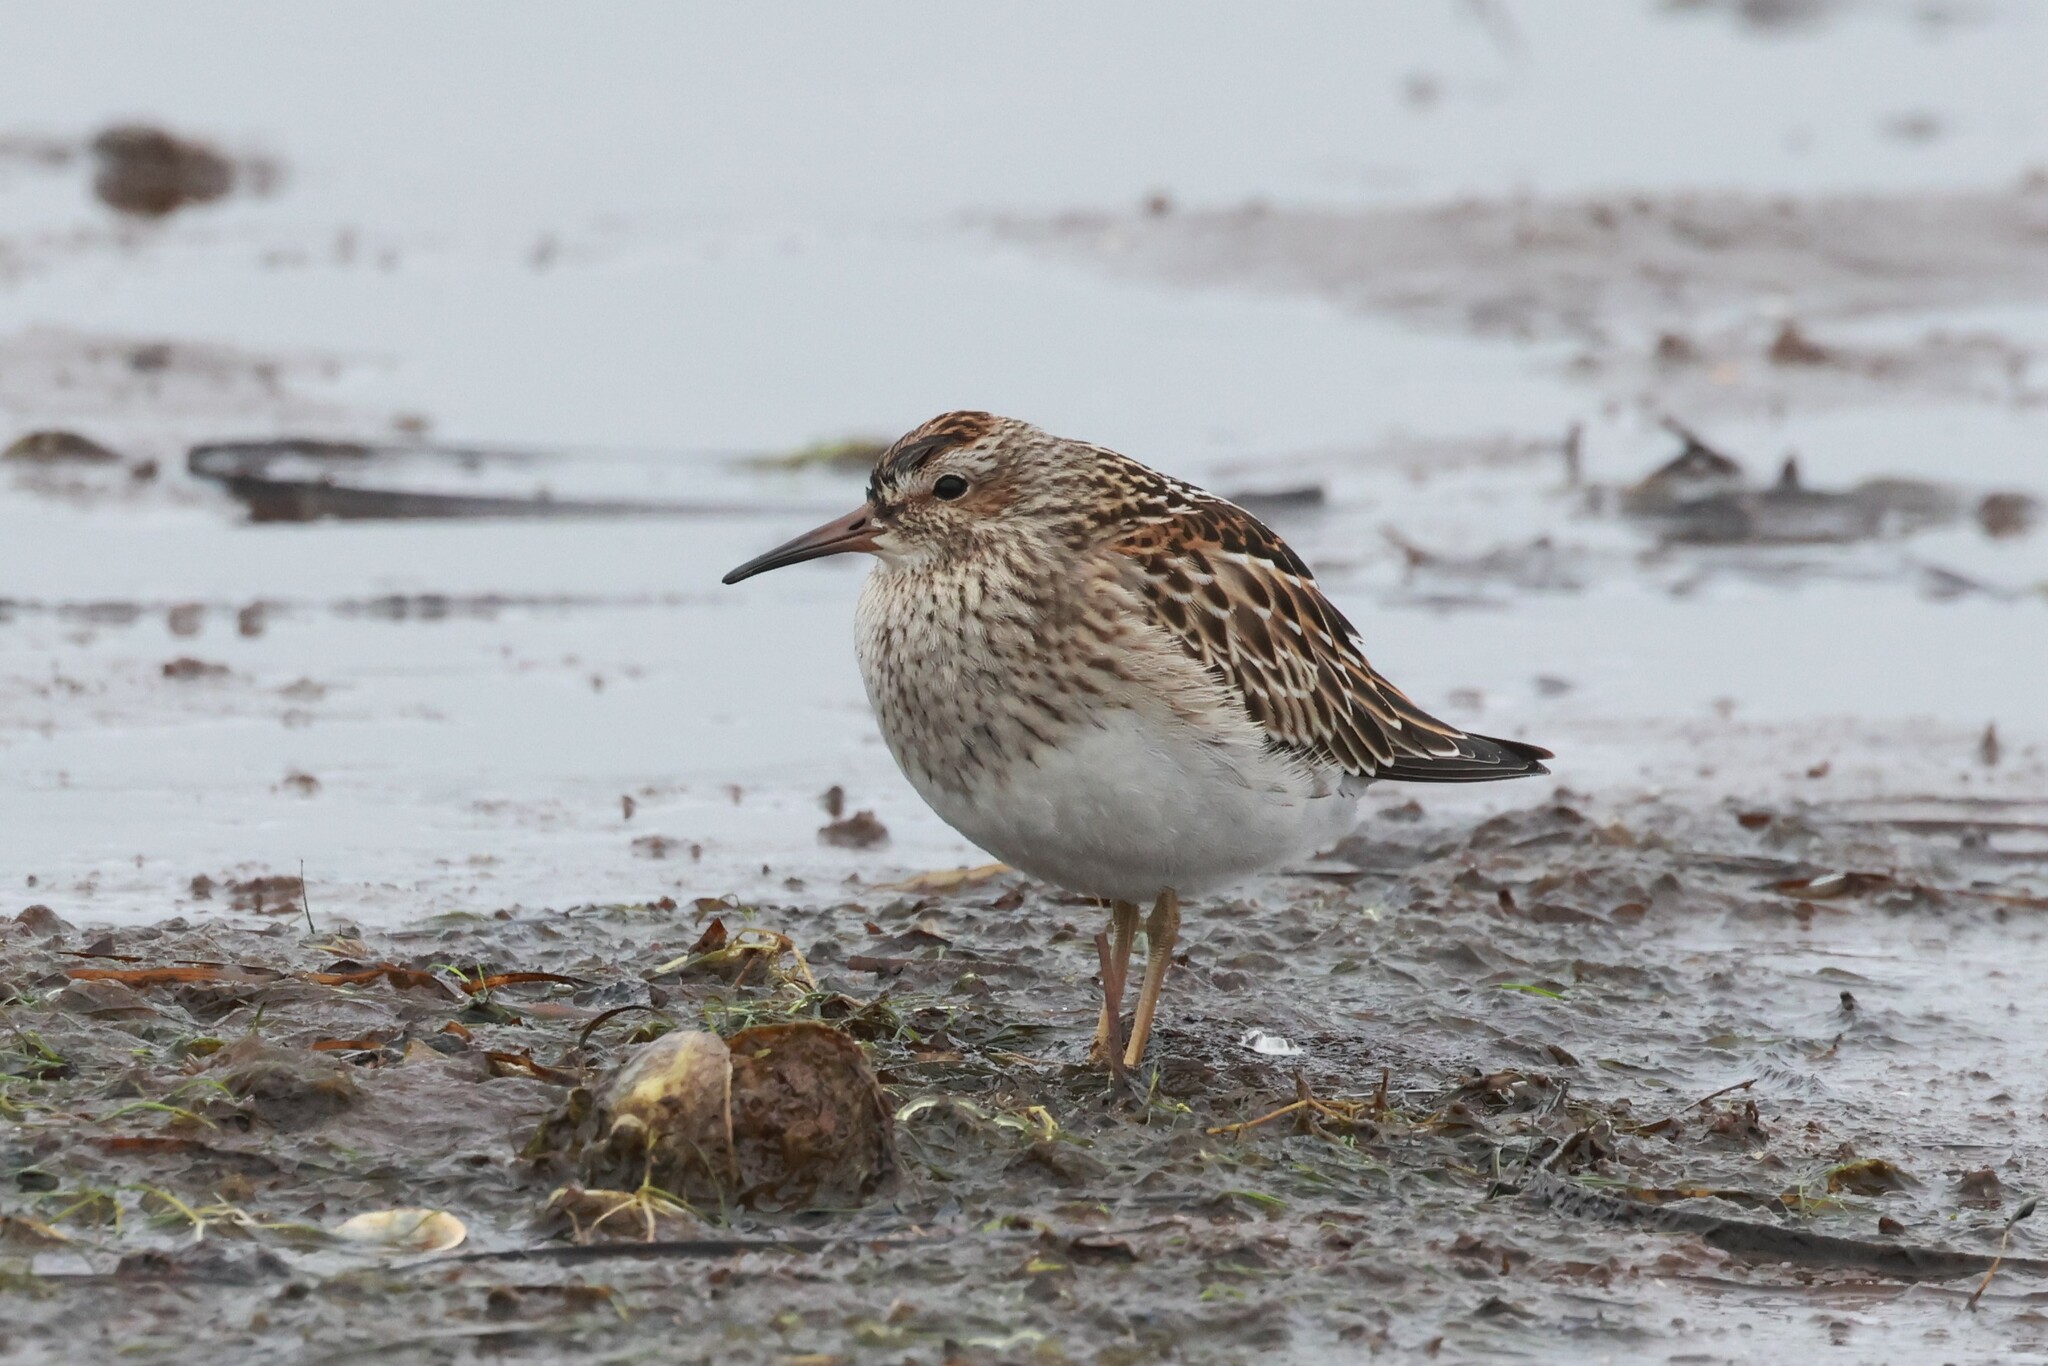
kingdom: Animalia
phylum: Chordata
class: Aves
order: Charadriiformes
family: Scolopacidae
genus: Calidris
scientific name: Calidris melanotos
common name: Pectoral sandpiper
